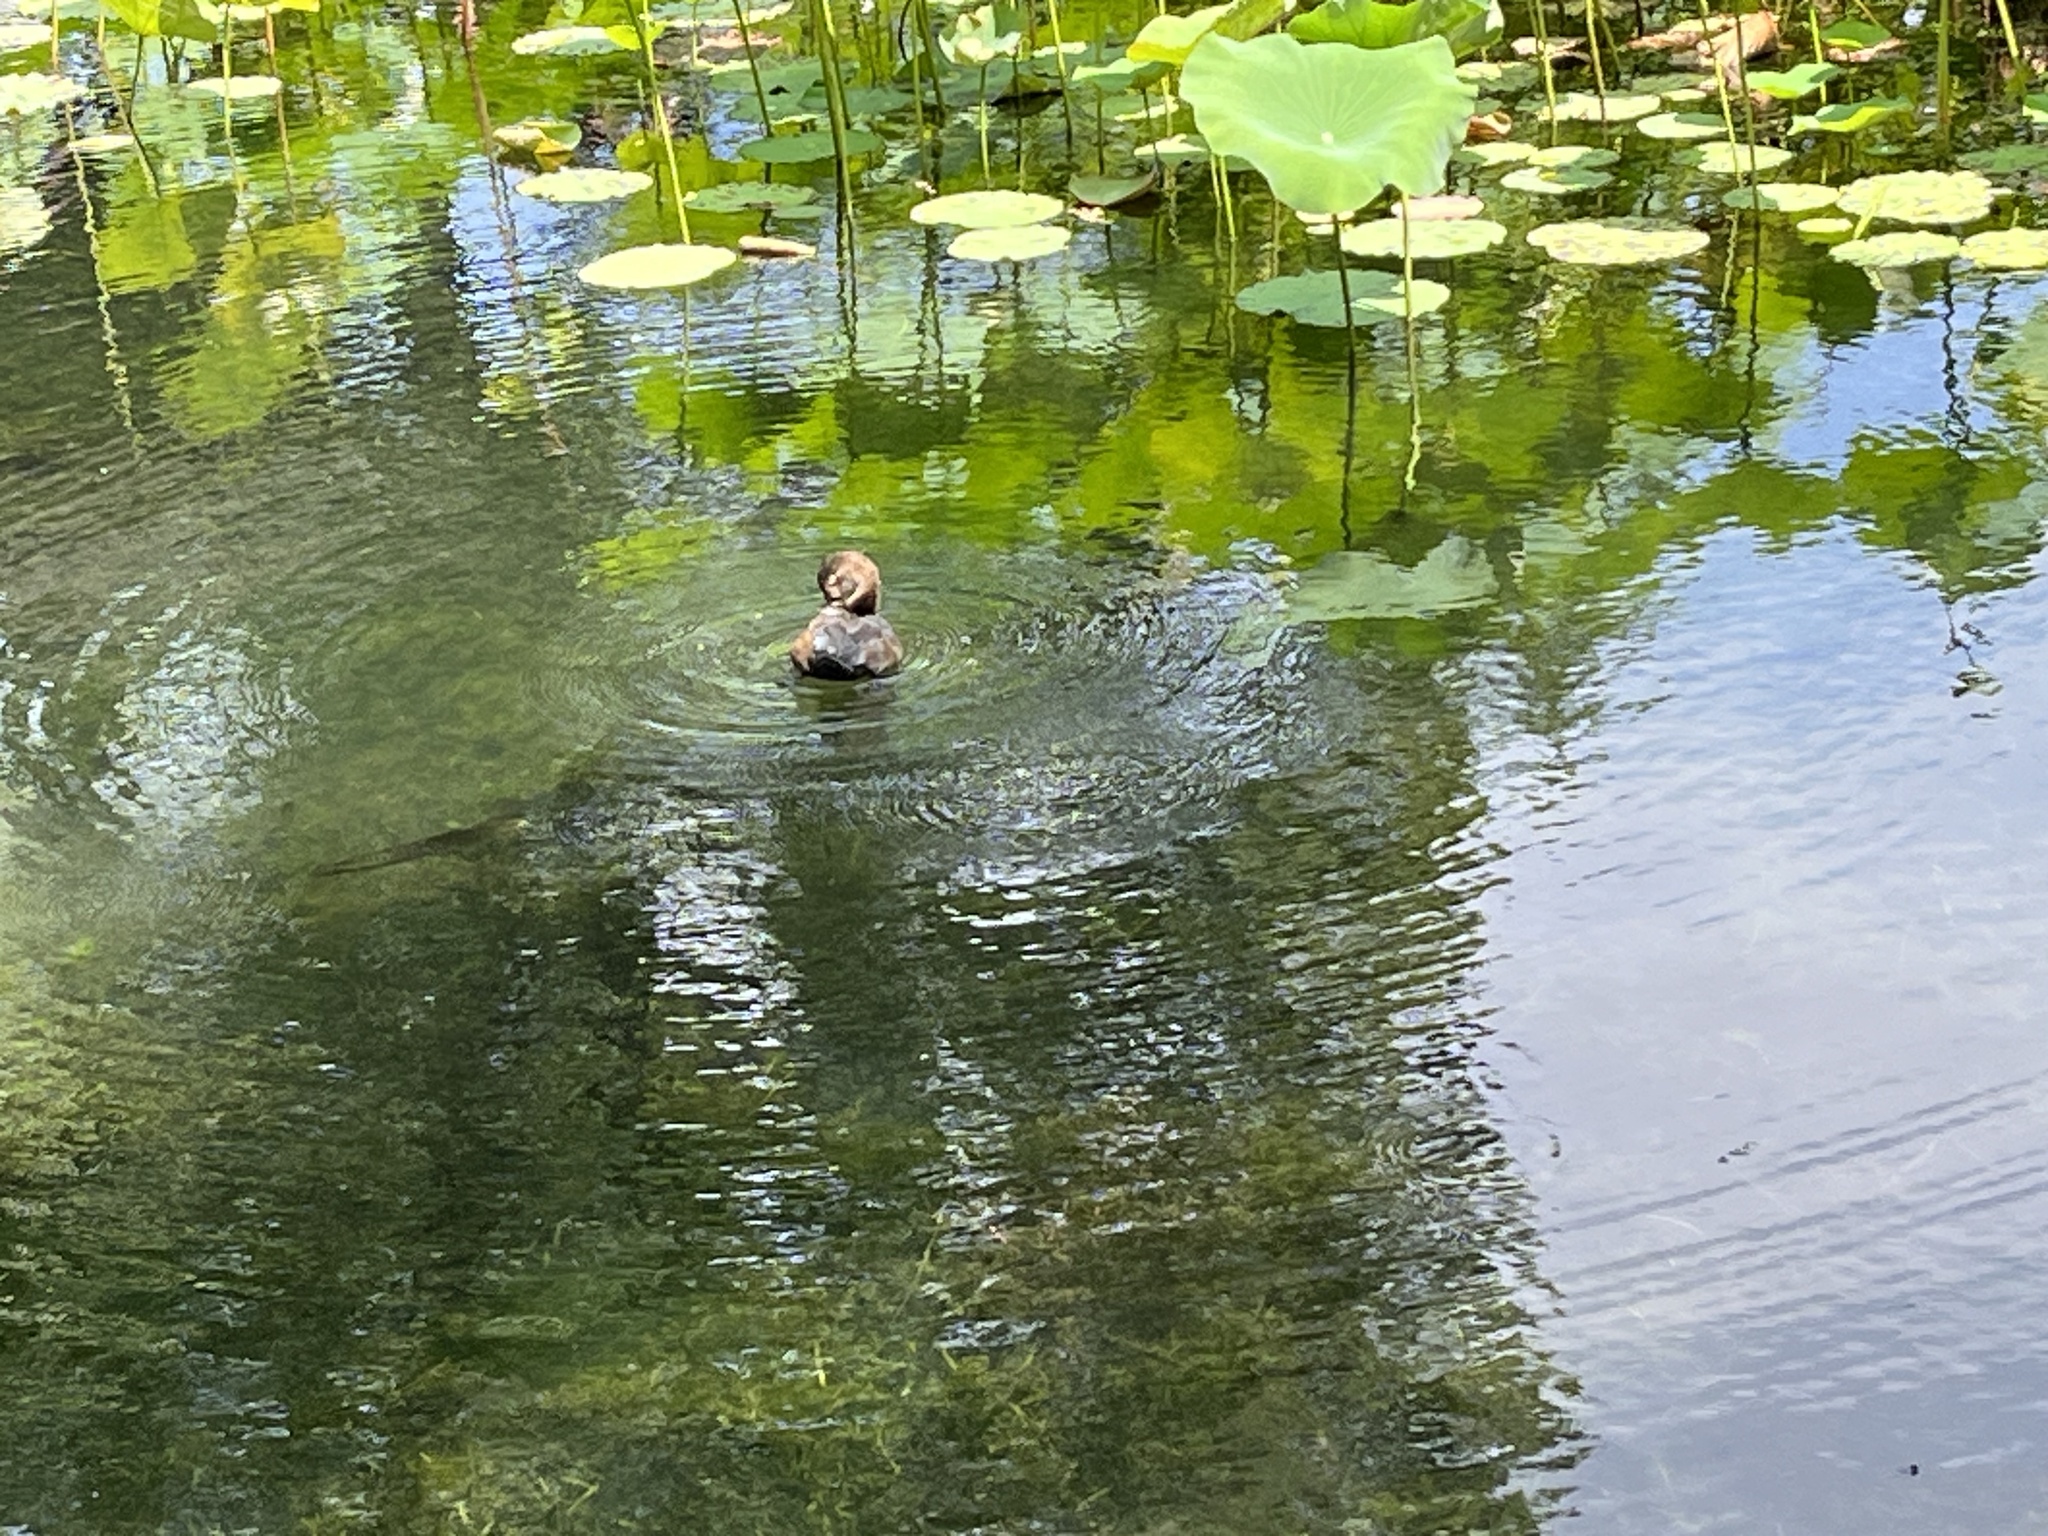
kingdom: Animalia
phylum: Chordata
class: Aves
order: Anseriformes
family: Anatidae
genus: Aythya
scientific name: Aythya ferina
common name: Common pochard
